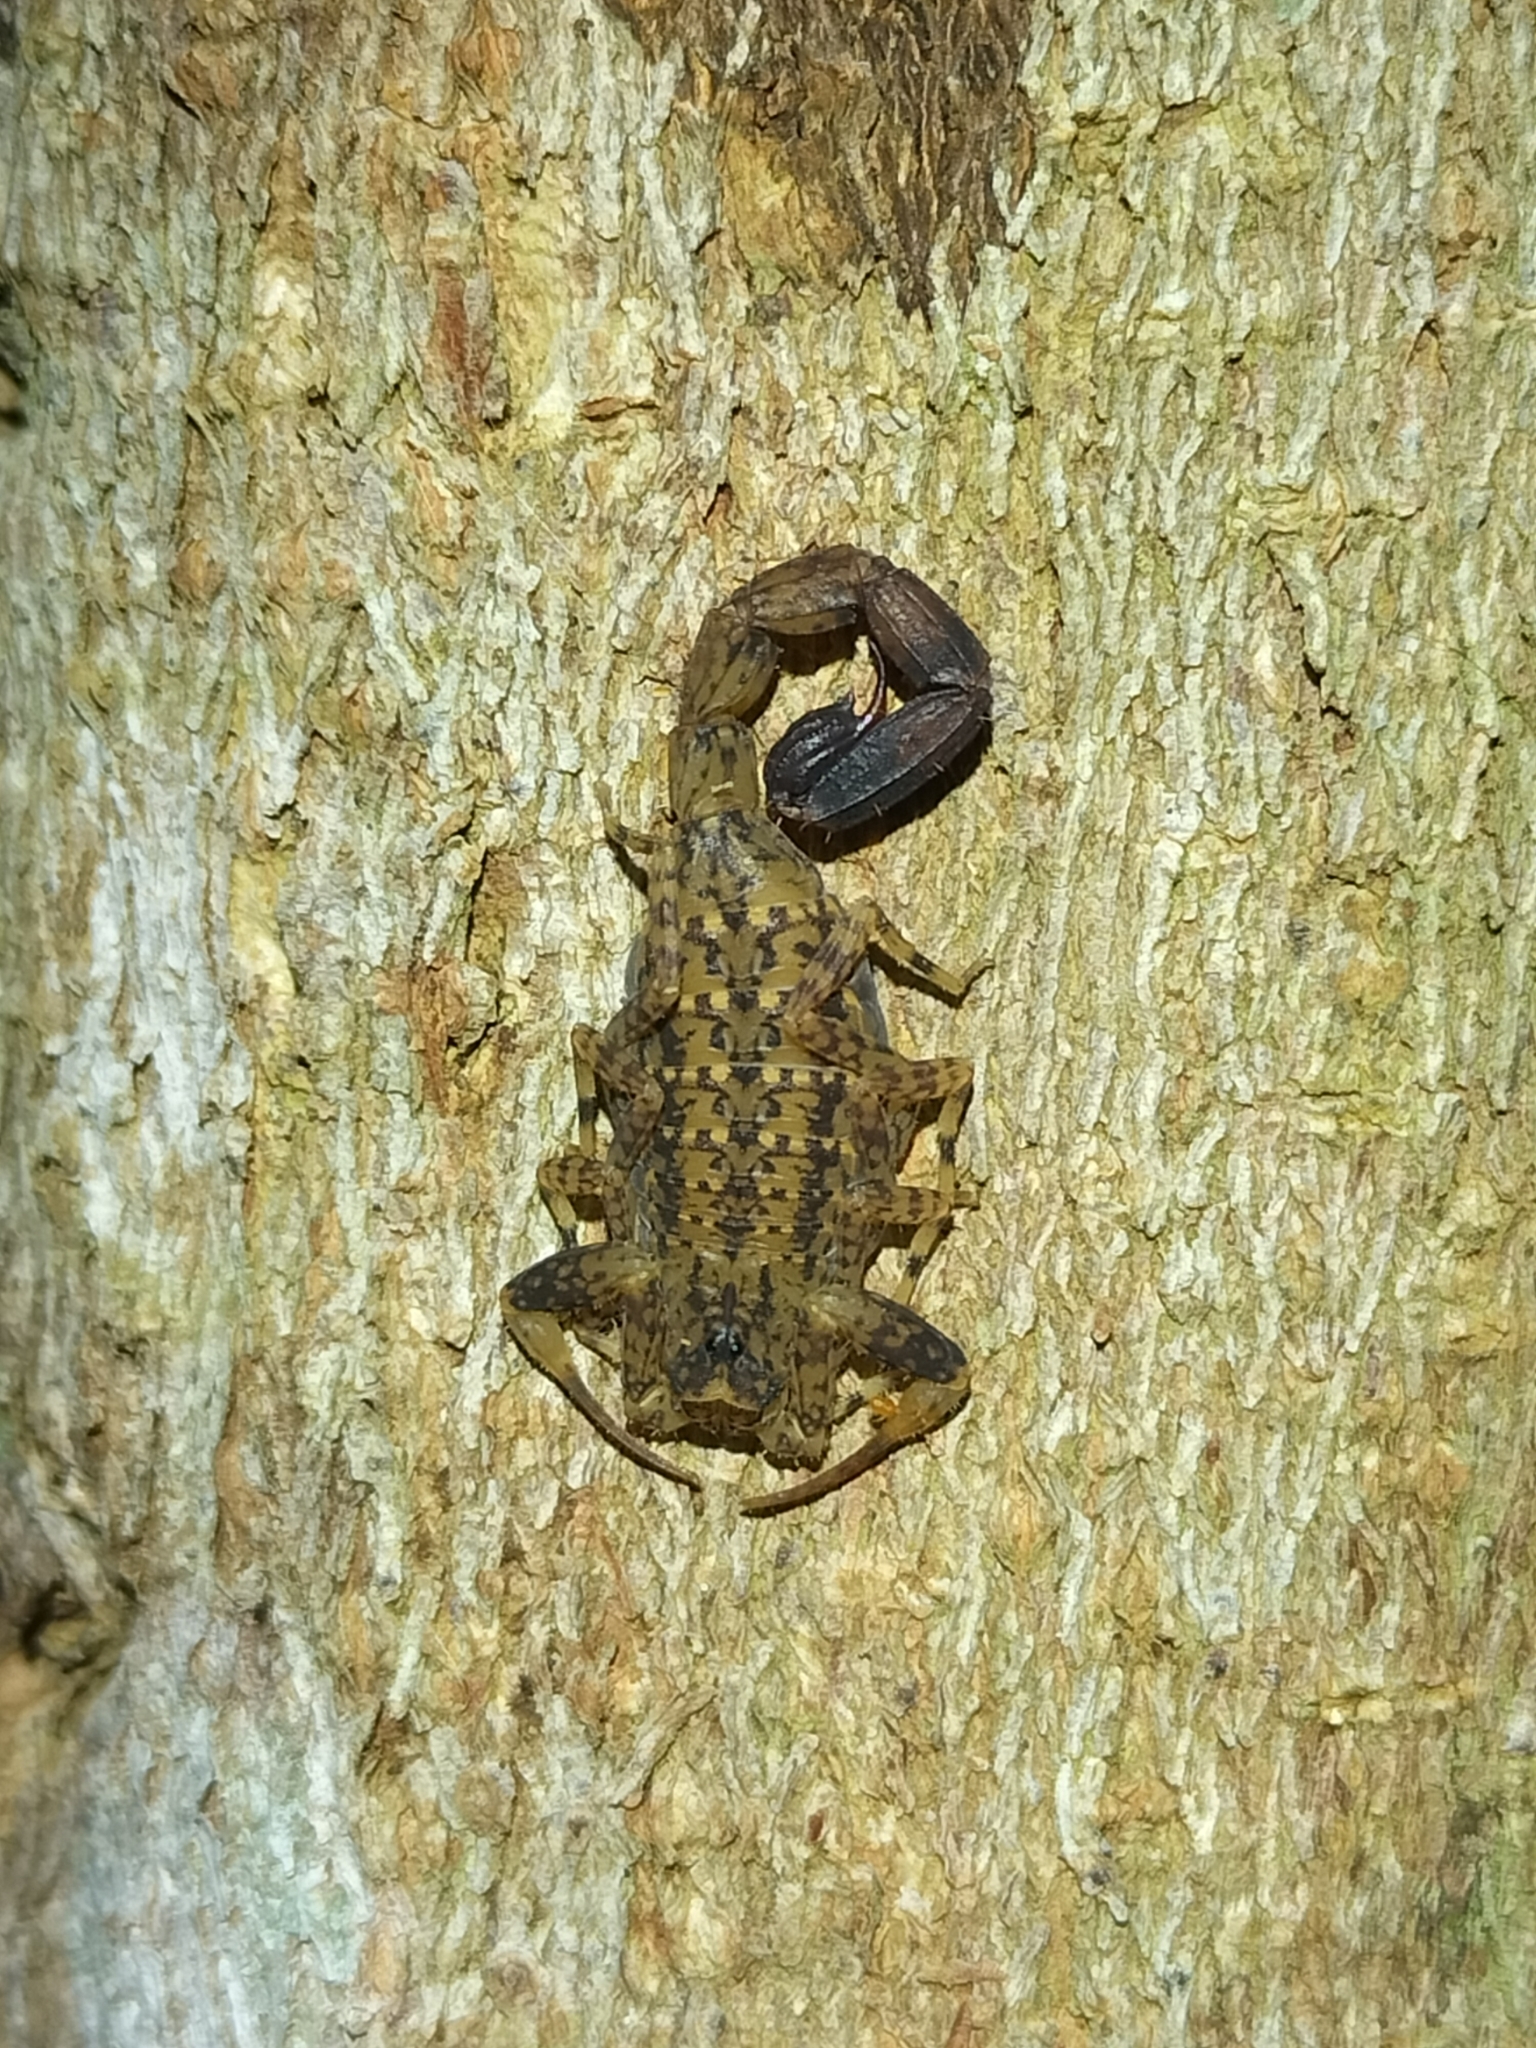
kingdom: Animalia
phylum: Arthropoda
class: Arachnida
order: Scorpiones
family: Buthidae
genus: Lychas
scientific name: Lychas variatus
